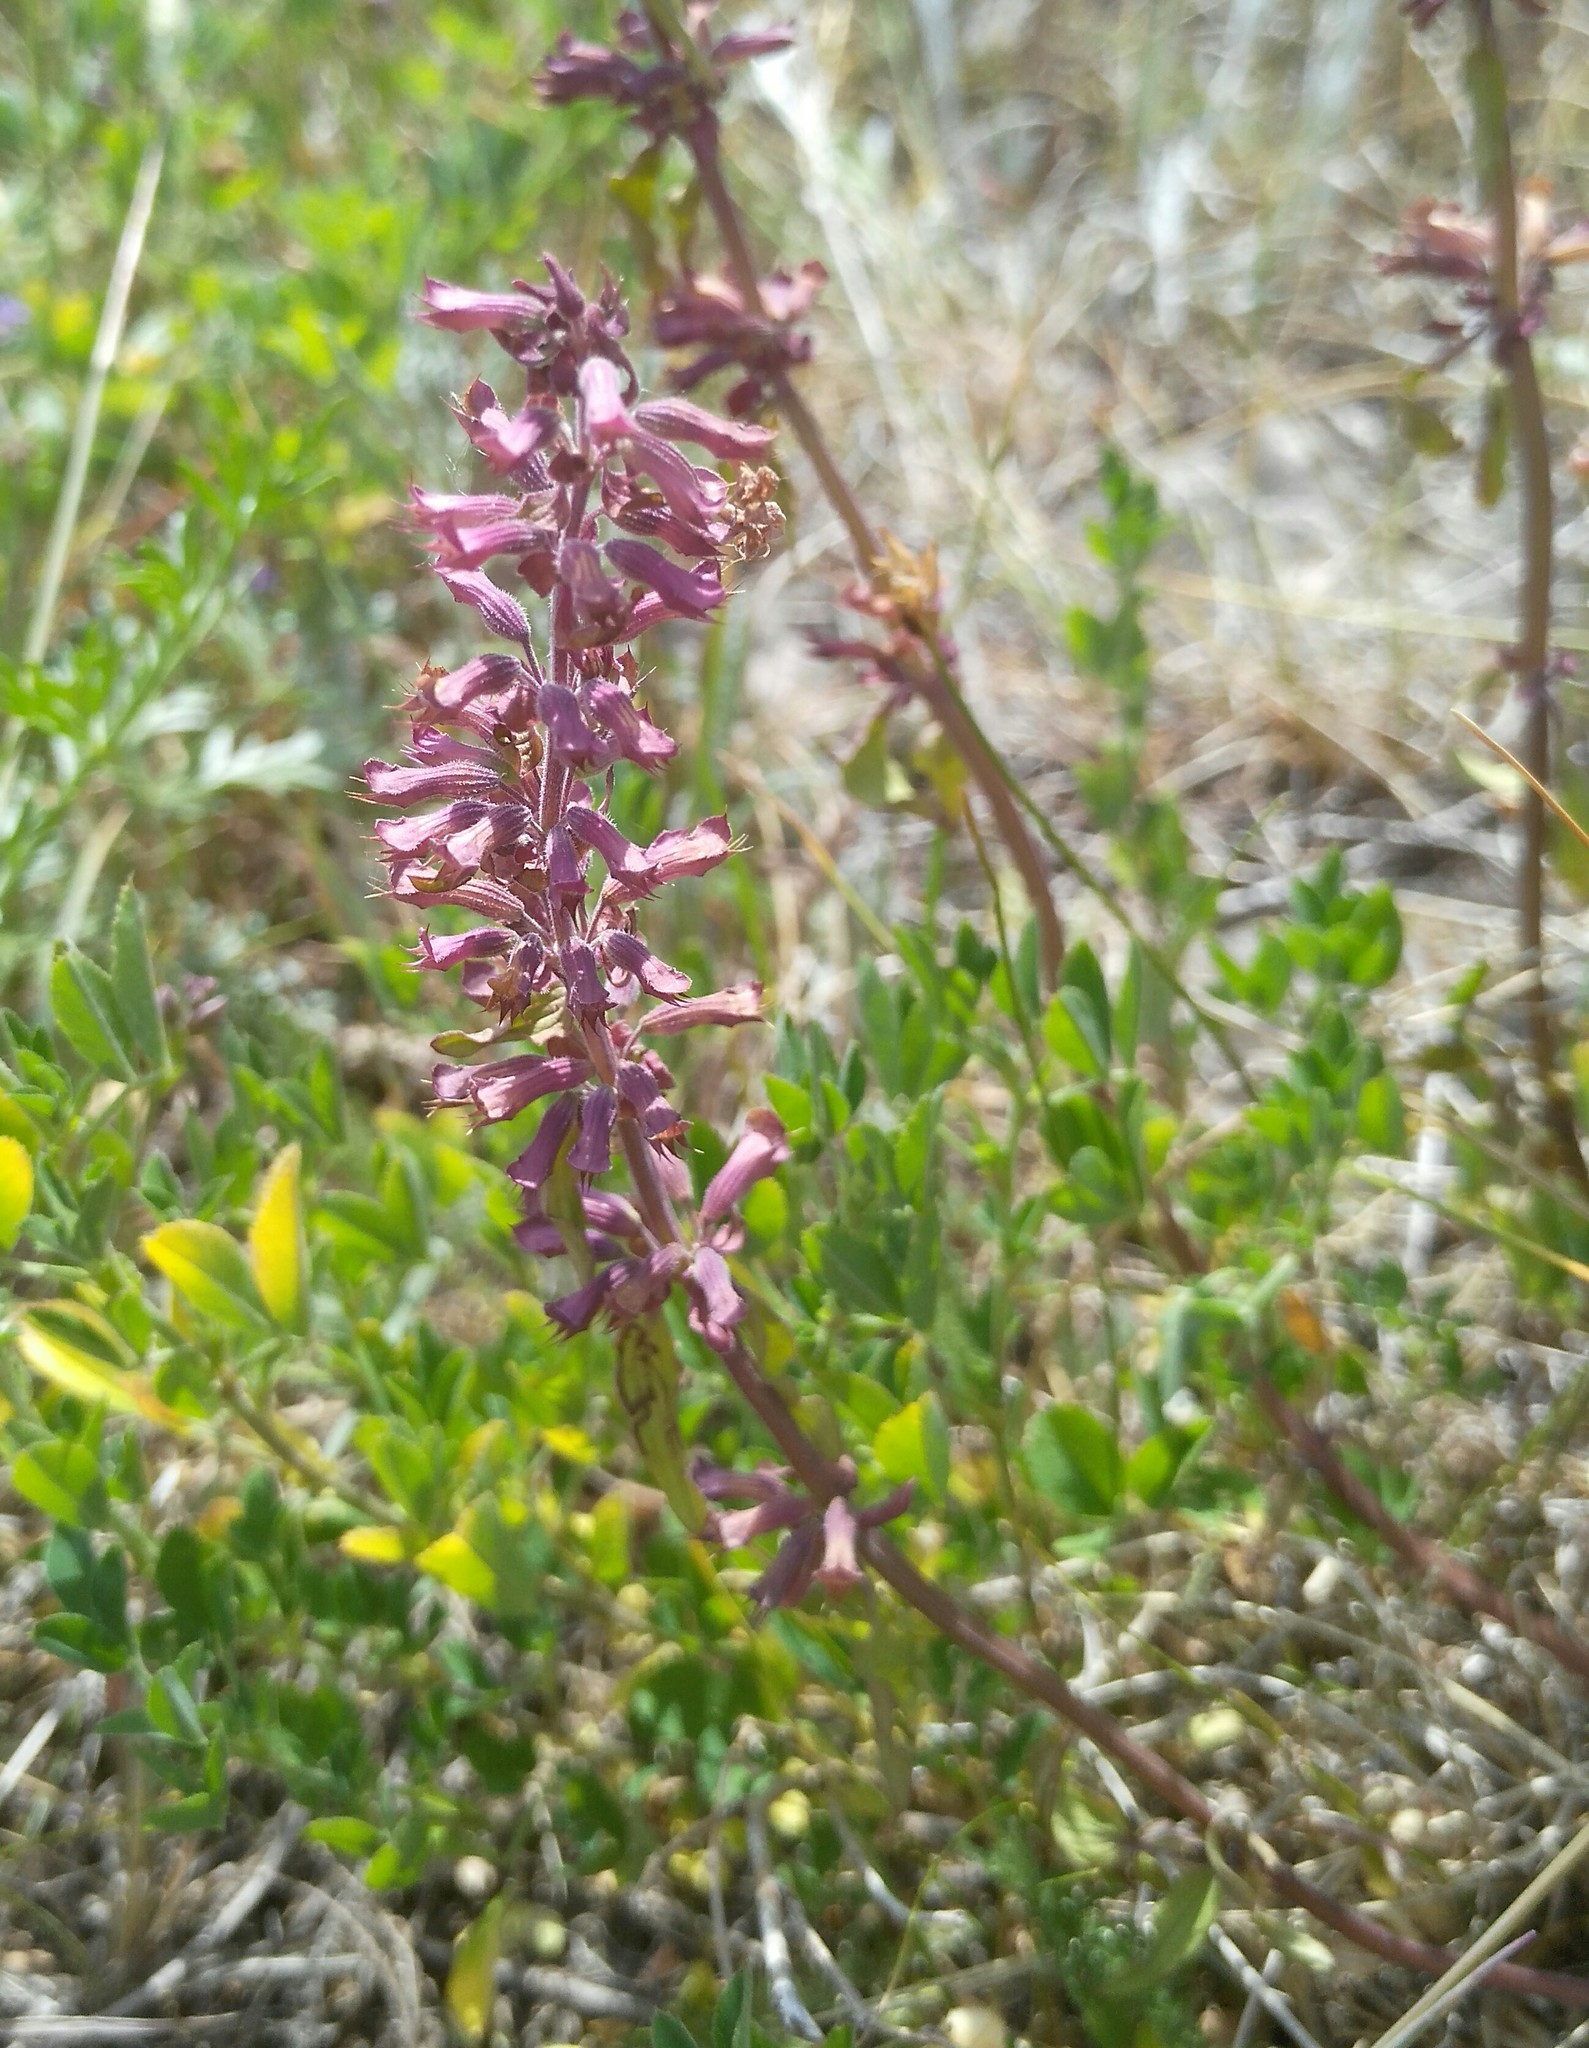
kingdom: Plantae
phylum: Tracheophyta
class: Magnoliopsida
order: Lamiales
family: Lamiaceae
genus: Dracocephalum
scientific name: Dracocephalum nutans
